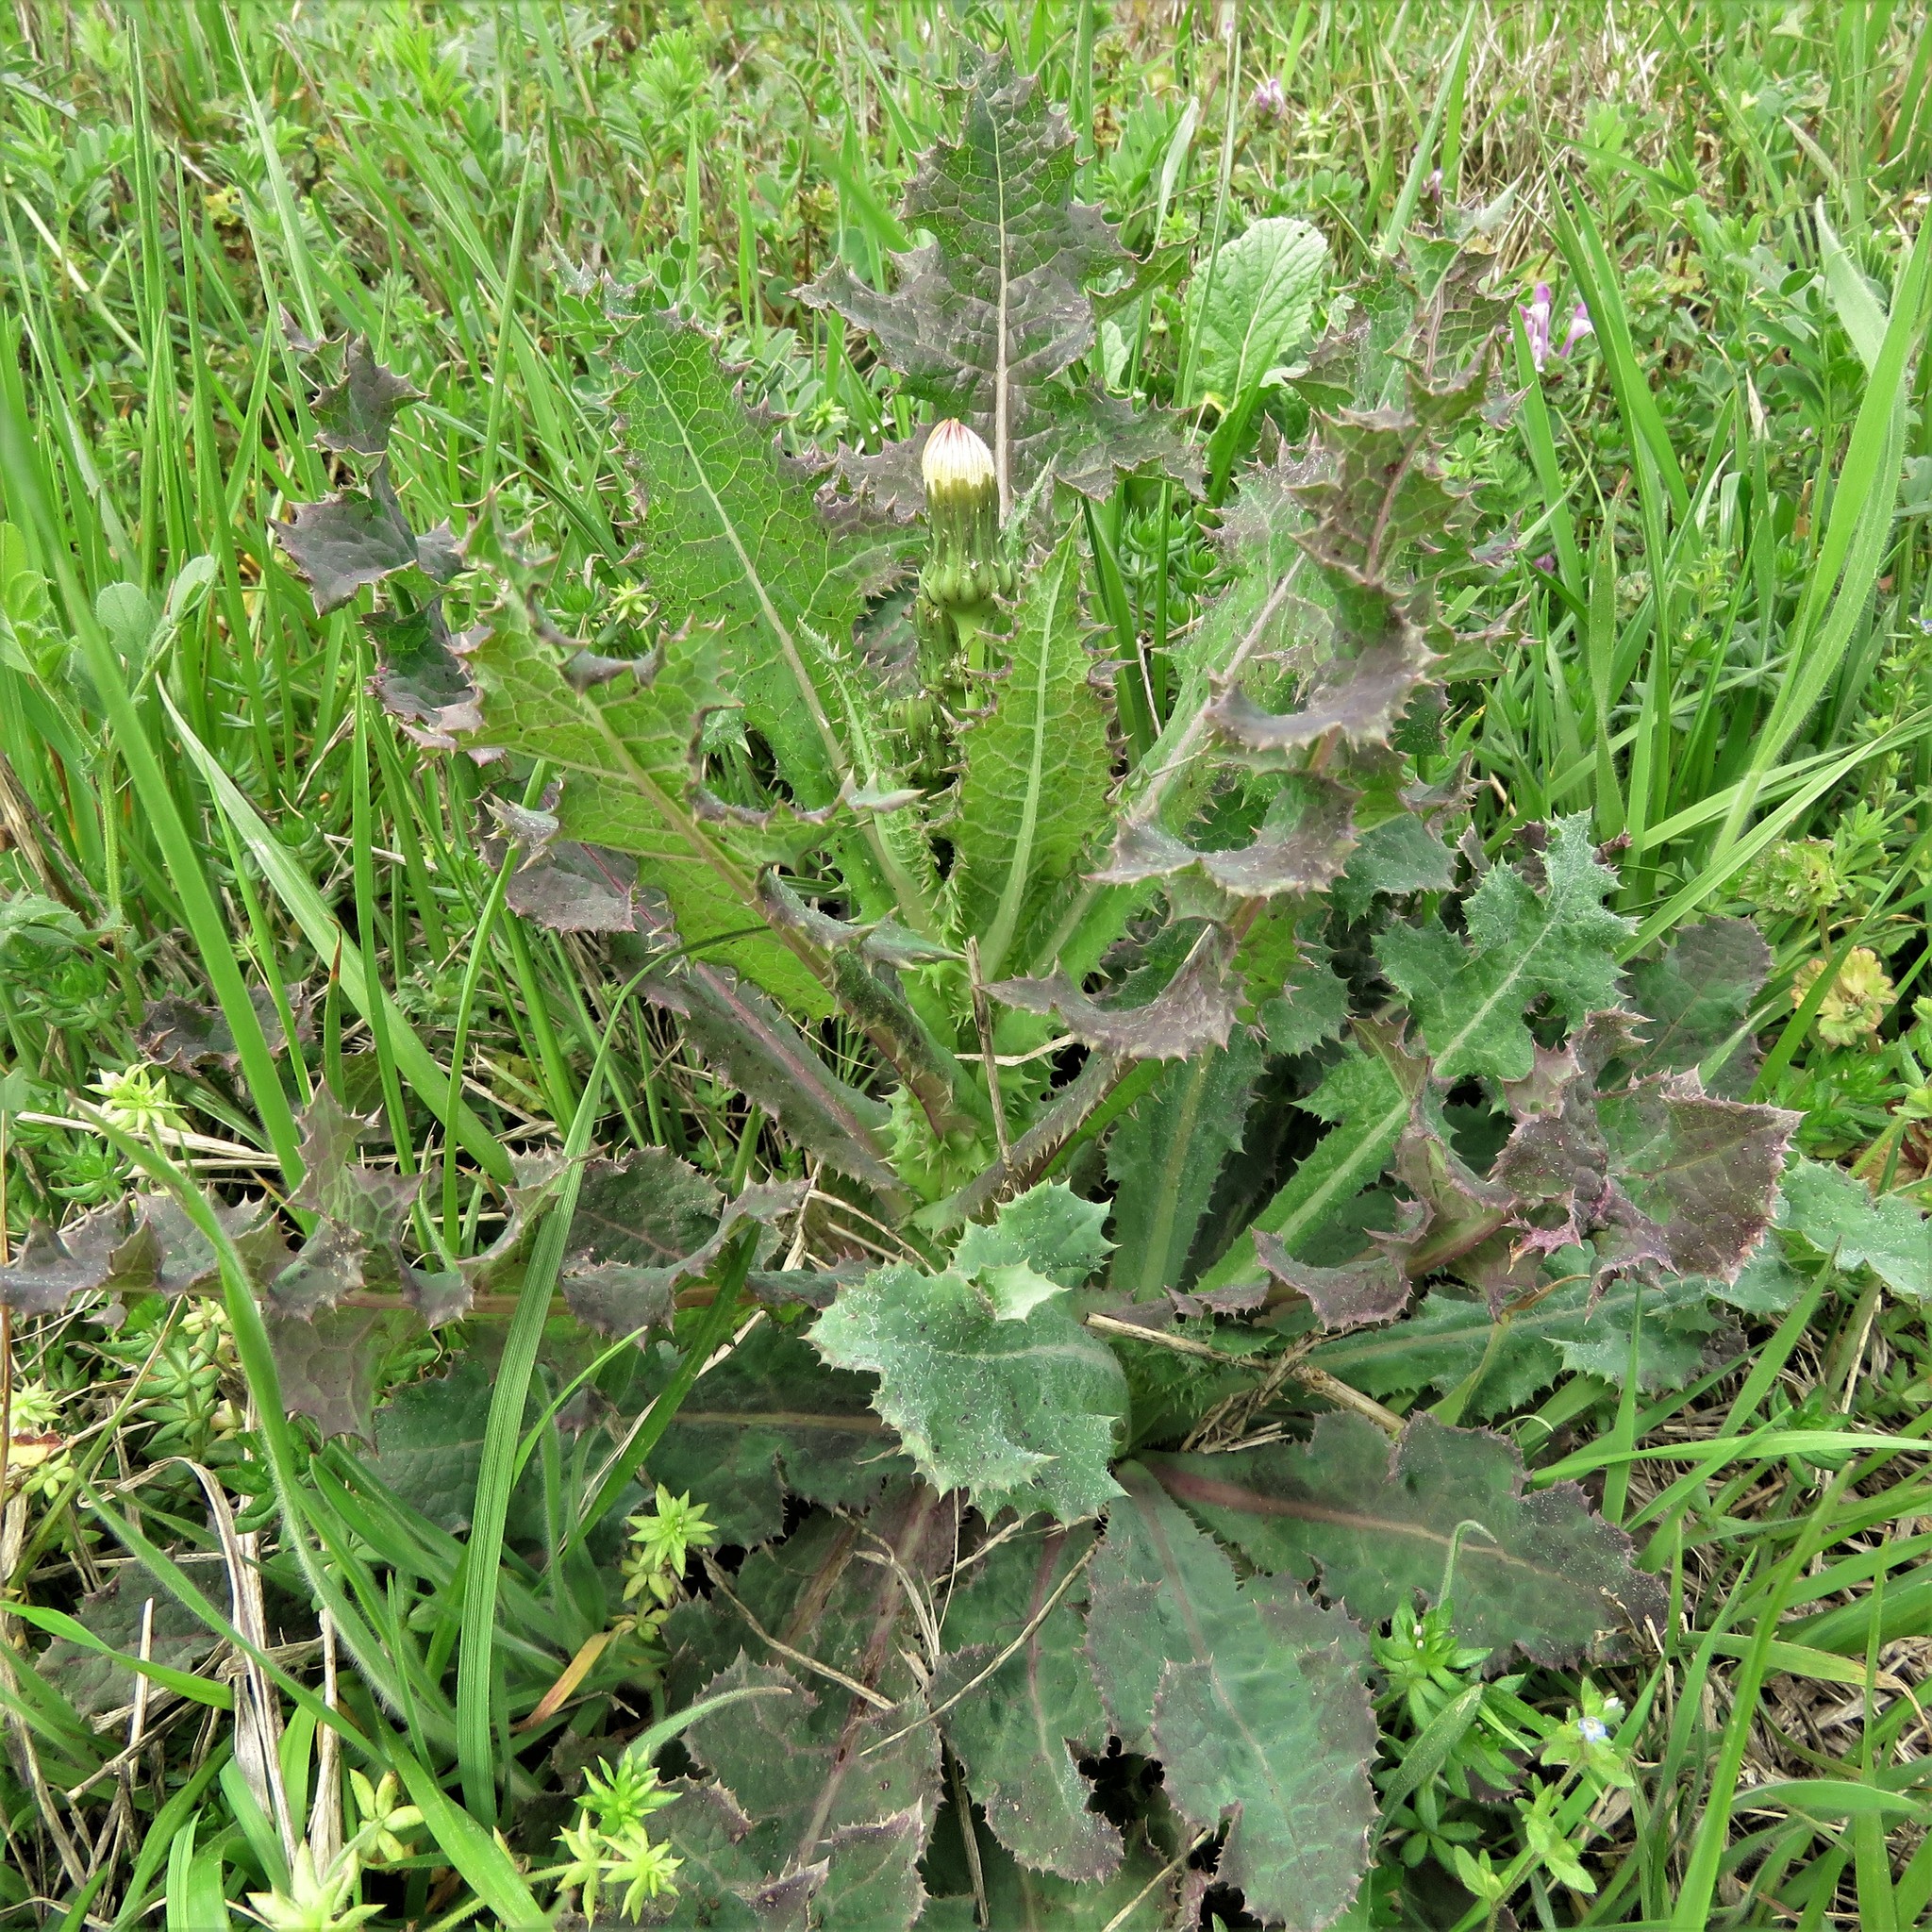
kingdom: Plantae
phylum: Tracheophyta
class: Magnoliopsida
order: Asterales
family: Asteraceae
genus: Sonchus
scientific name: Sonchus asper
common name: Prickly sow-thistle
